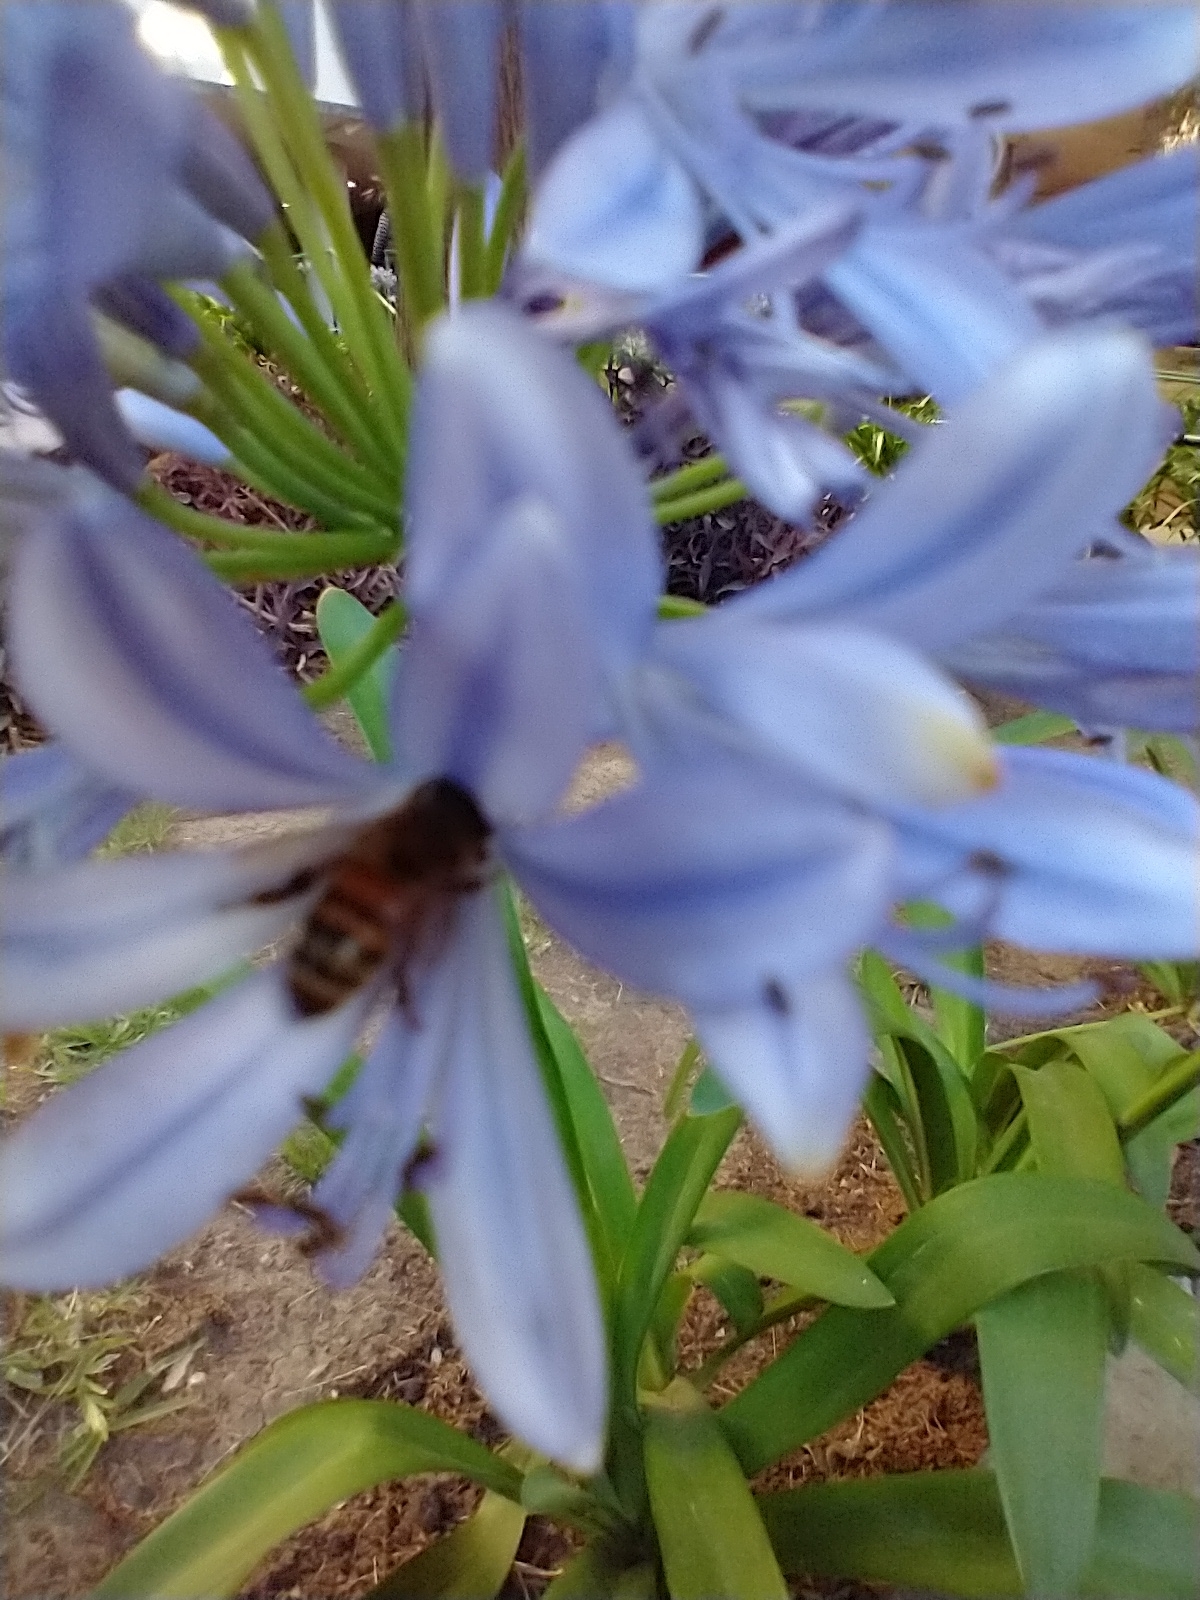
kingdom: Animalia
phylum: Arthropoda
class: Insecta
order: Hymenoptera
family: Apidae
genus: Apis
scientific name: Apis mellifera
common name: Honey bee
